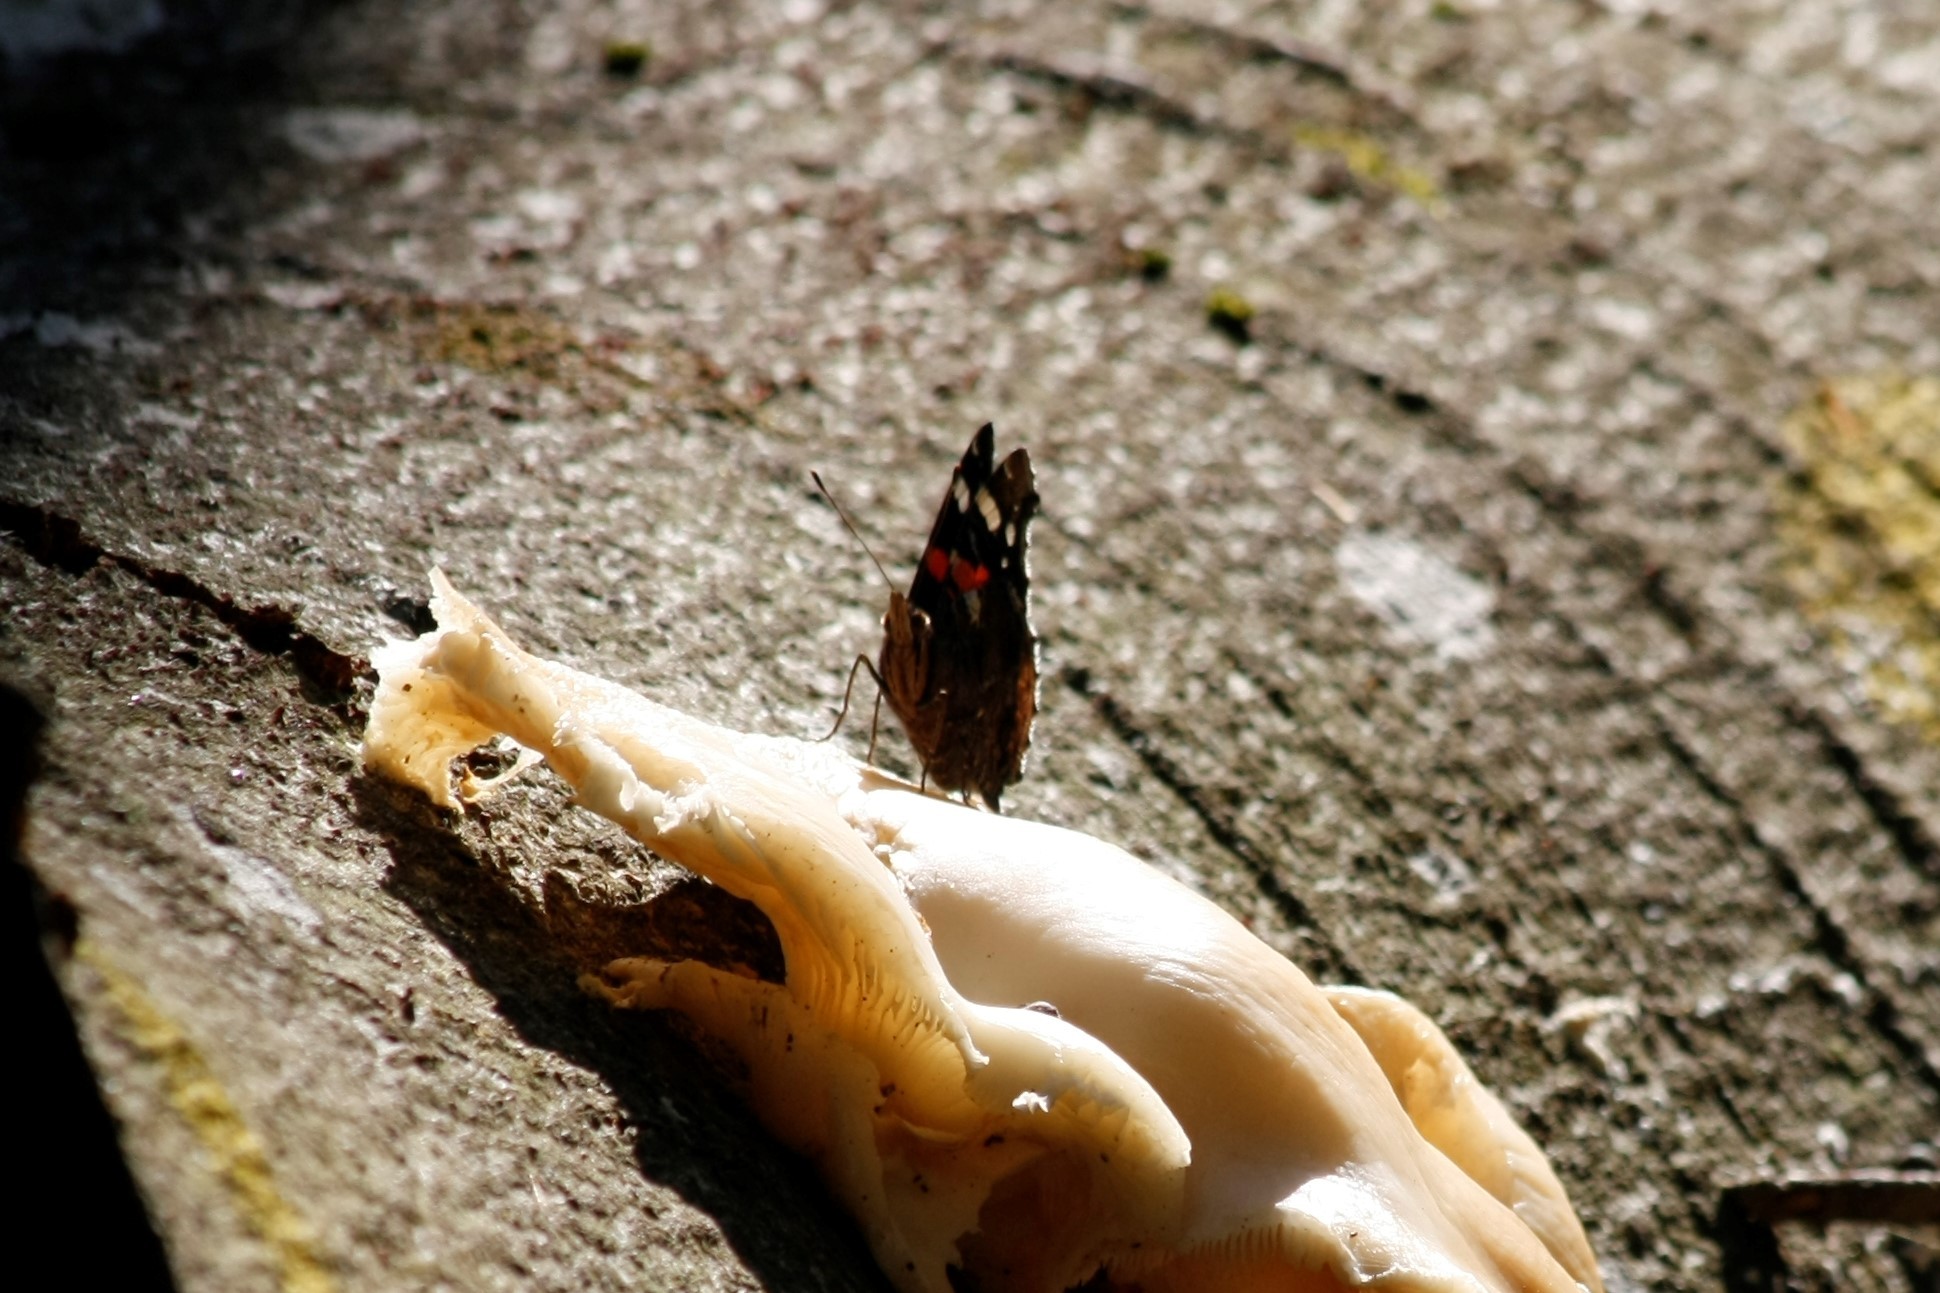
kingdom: Animalia
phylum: Arthropoda
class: Insecta
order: Lepidoptera
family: Nymphalidae
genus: Vanessa
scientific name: Vanessa atalanta
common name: Red admiral
